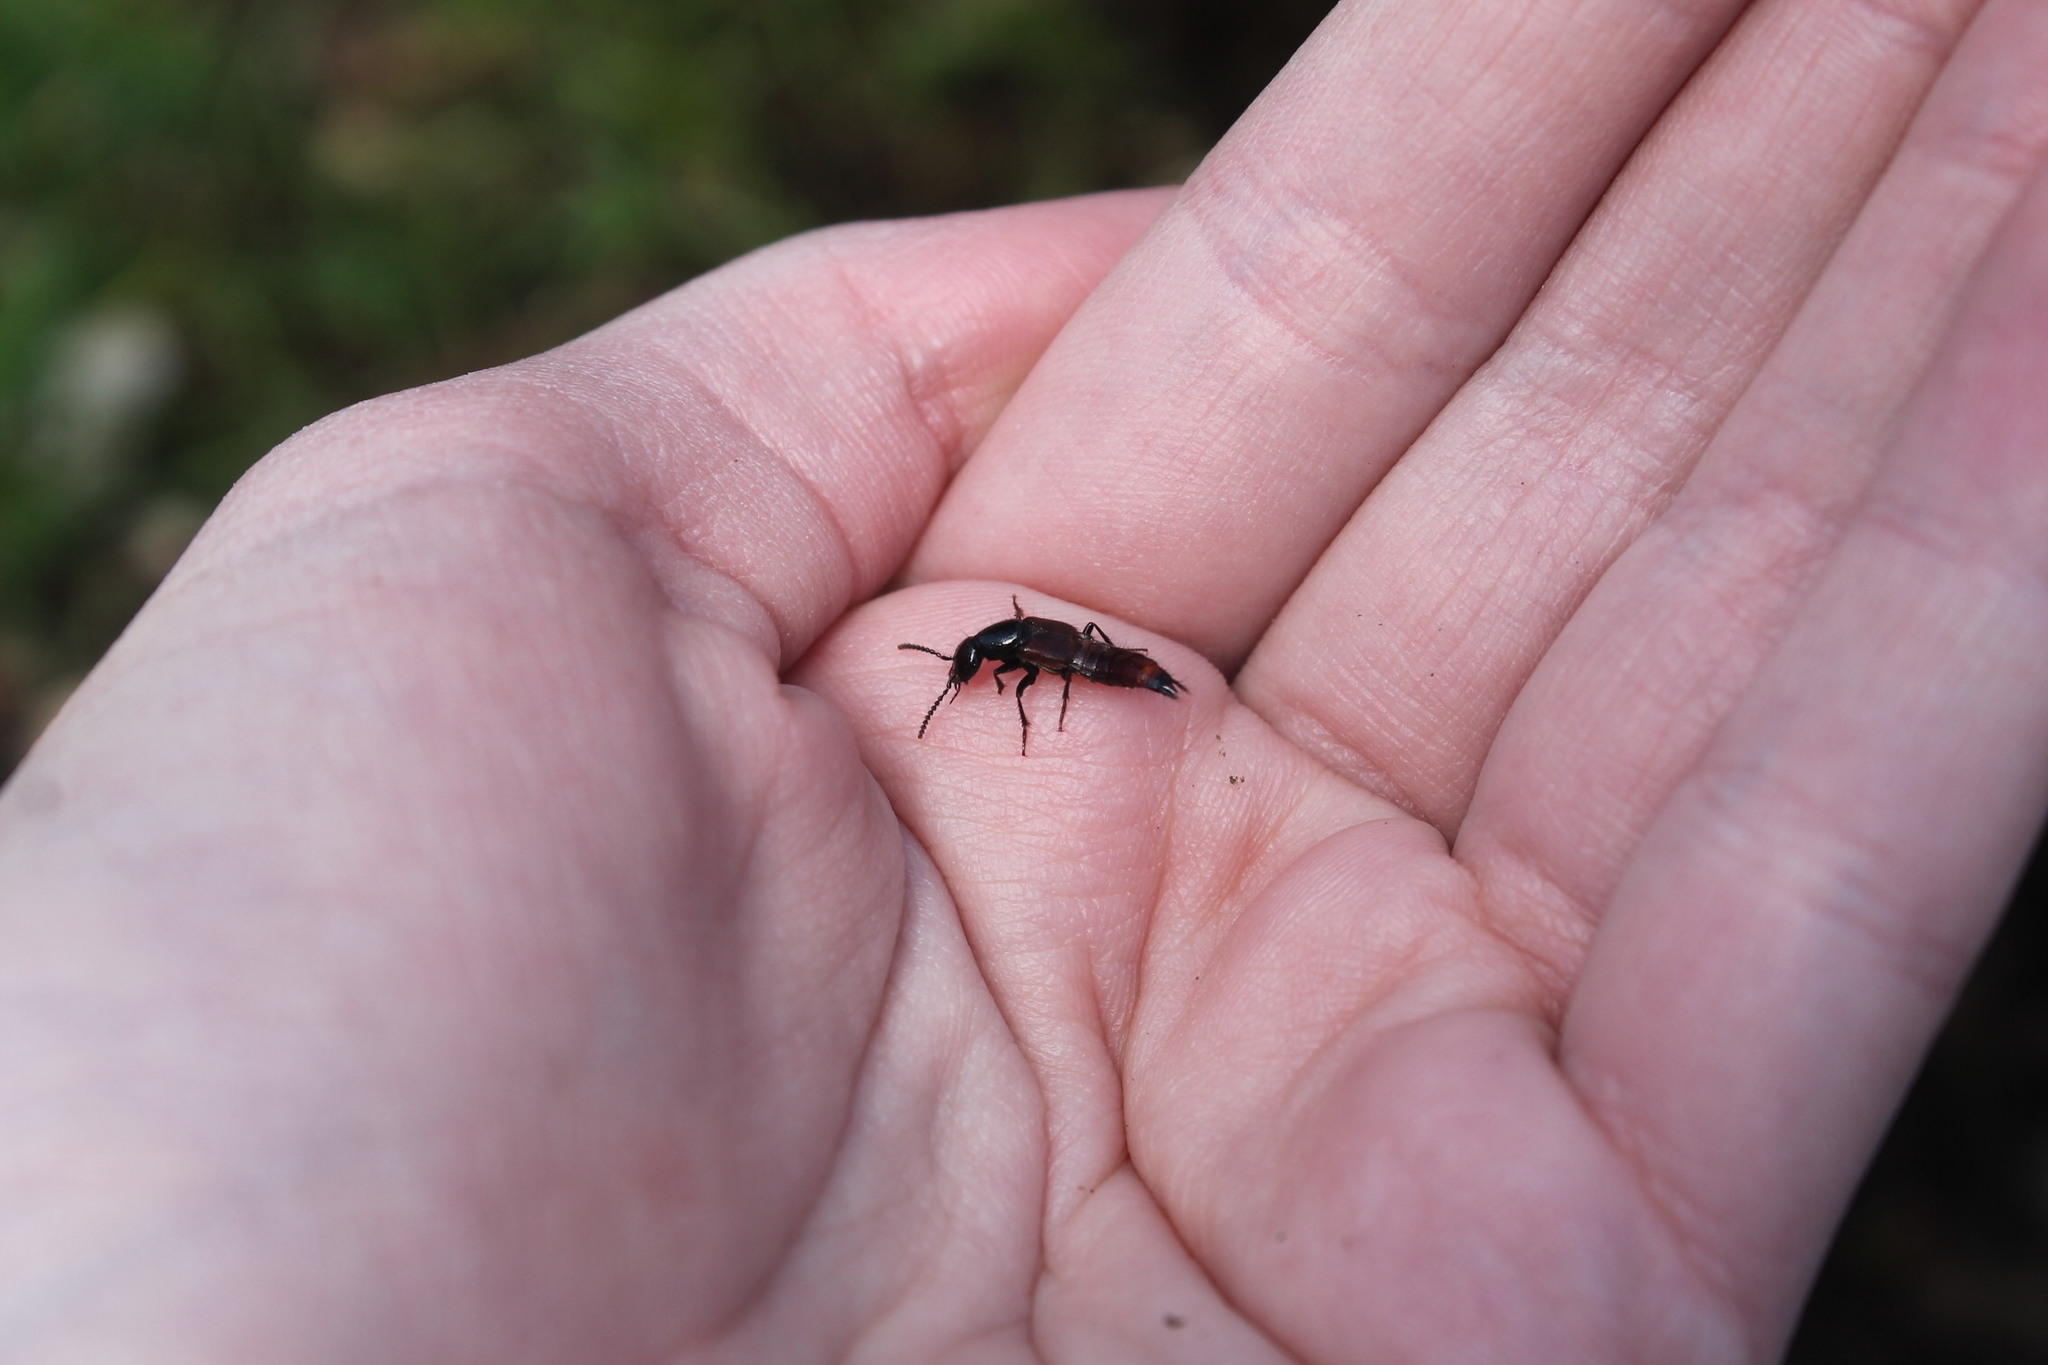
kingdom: Animalia
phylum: Arthropoda
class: Insecta
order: Coleoptera
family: Staphylinidae
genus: Hesperus
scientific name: Hesperus baltimorensis
